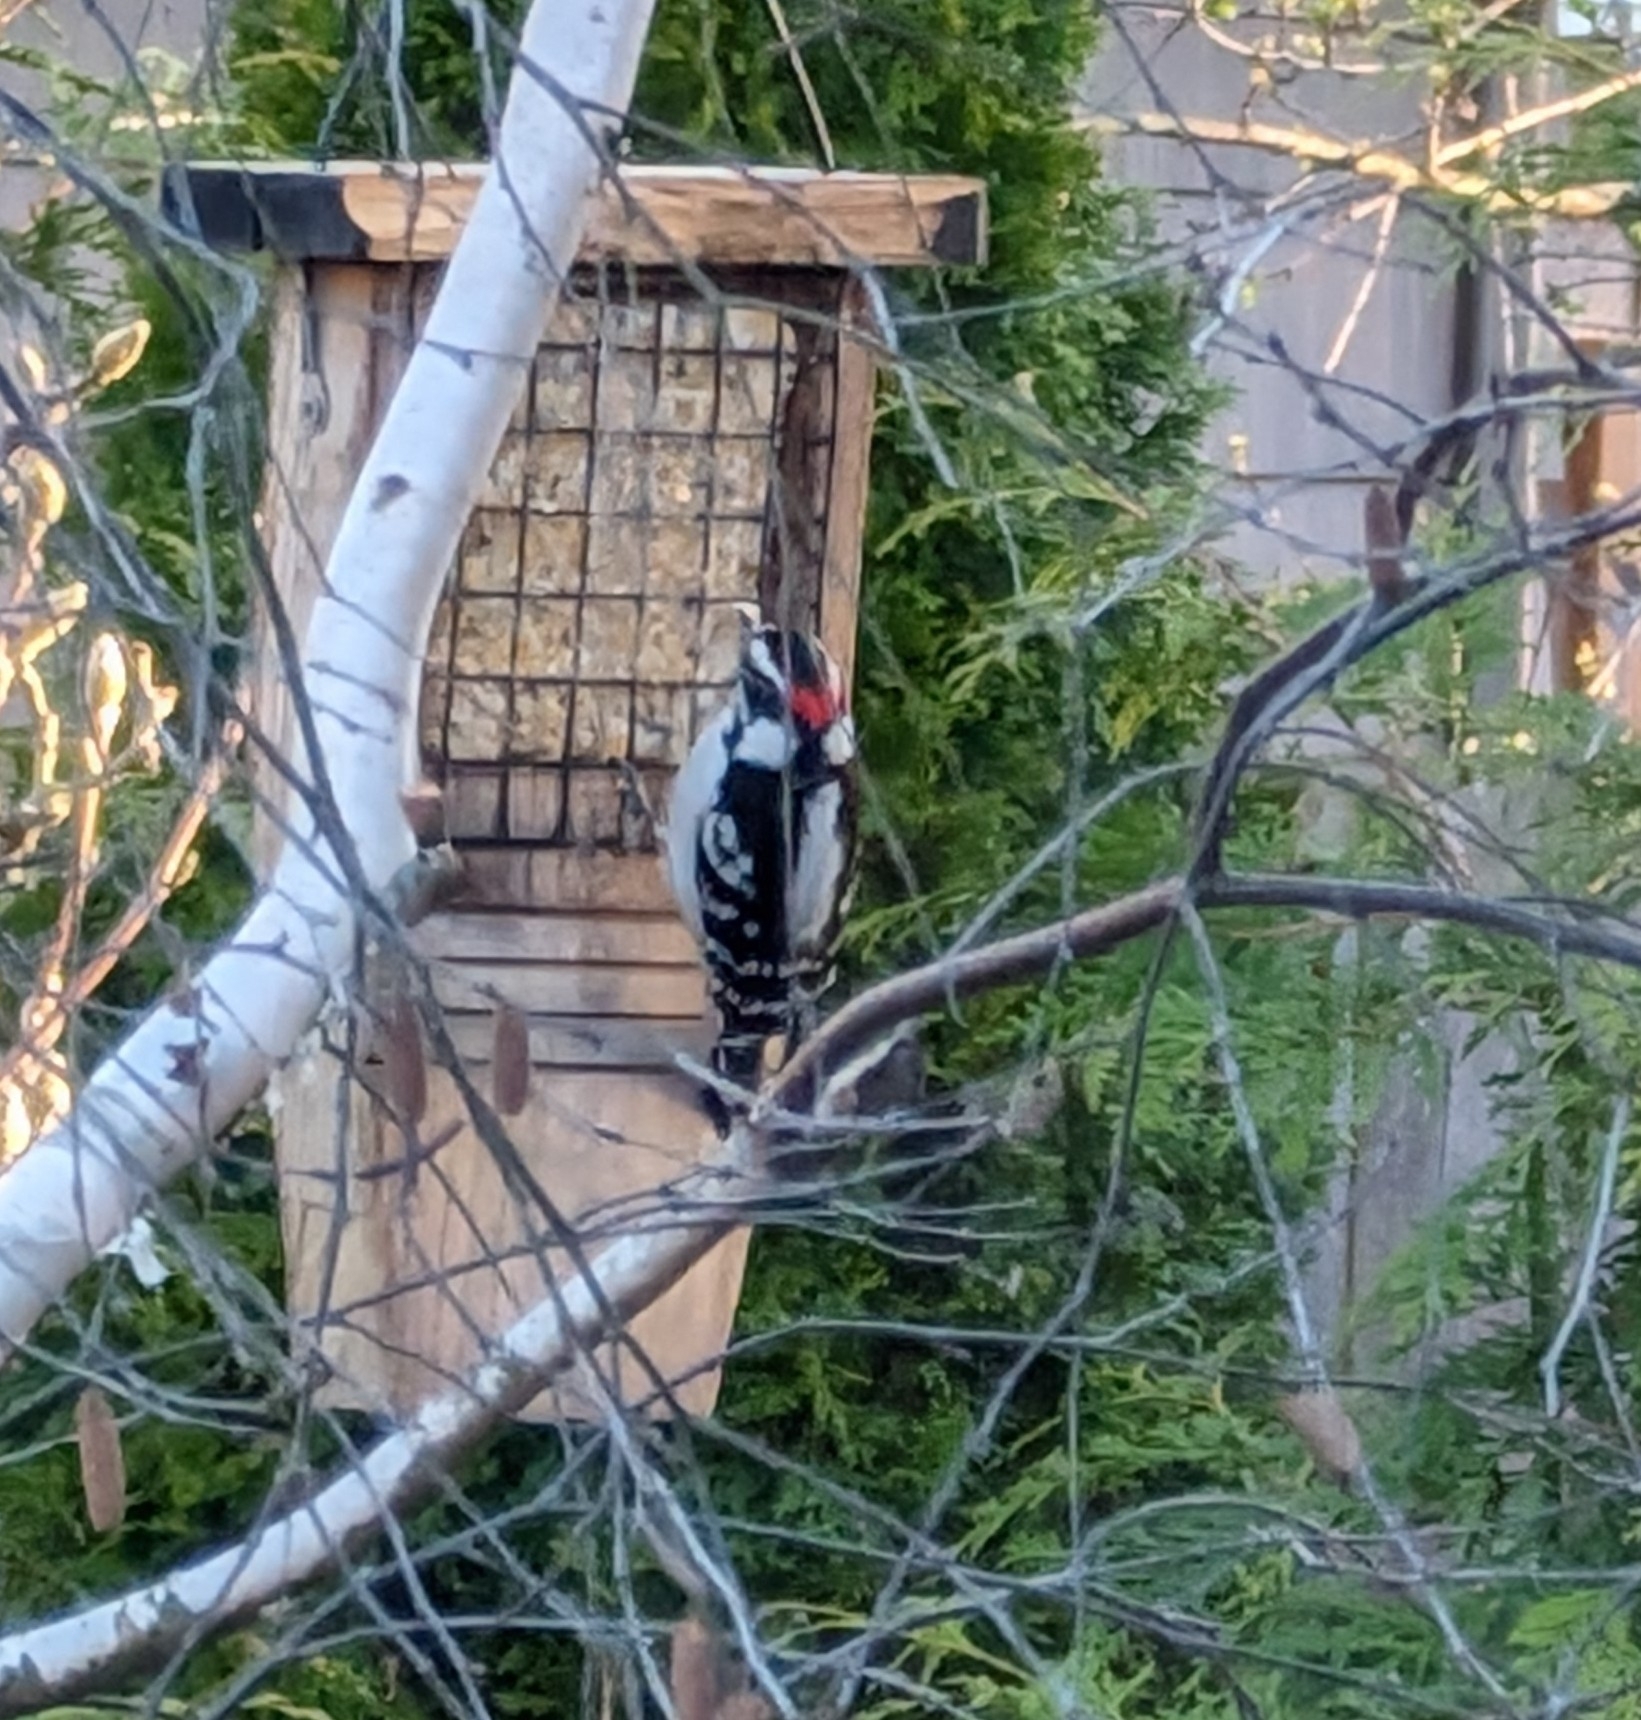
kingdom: Animalia
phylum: Chordata
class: Aves
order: Piciformes
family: Picidae
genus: Dryobates
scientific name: Dryobates pubescens
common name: Downy woodpecker
